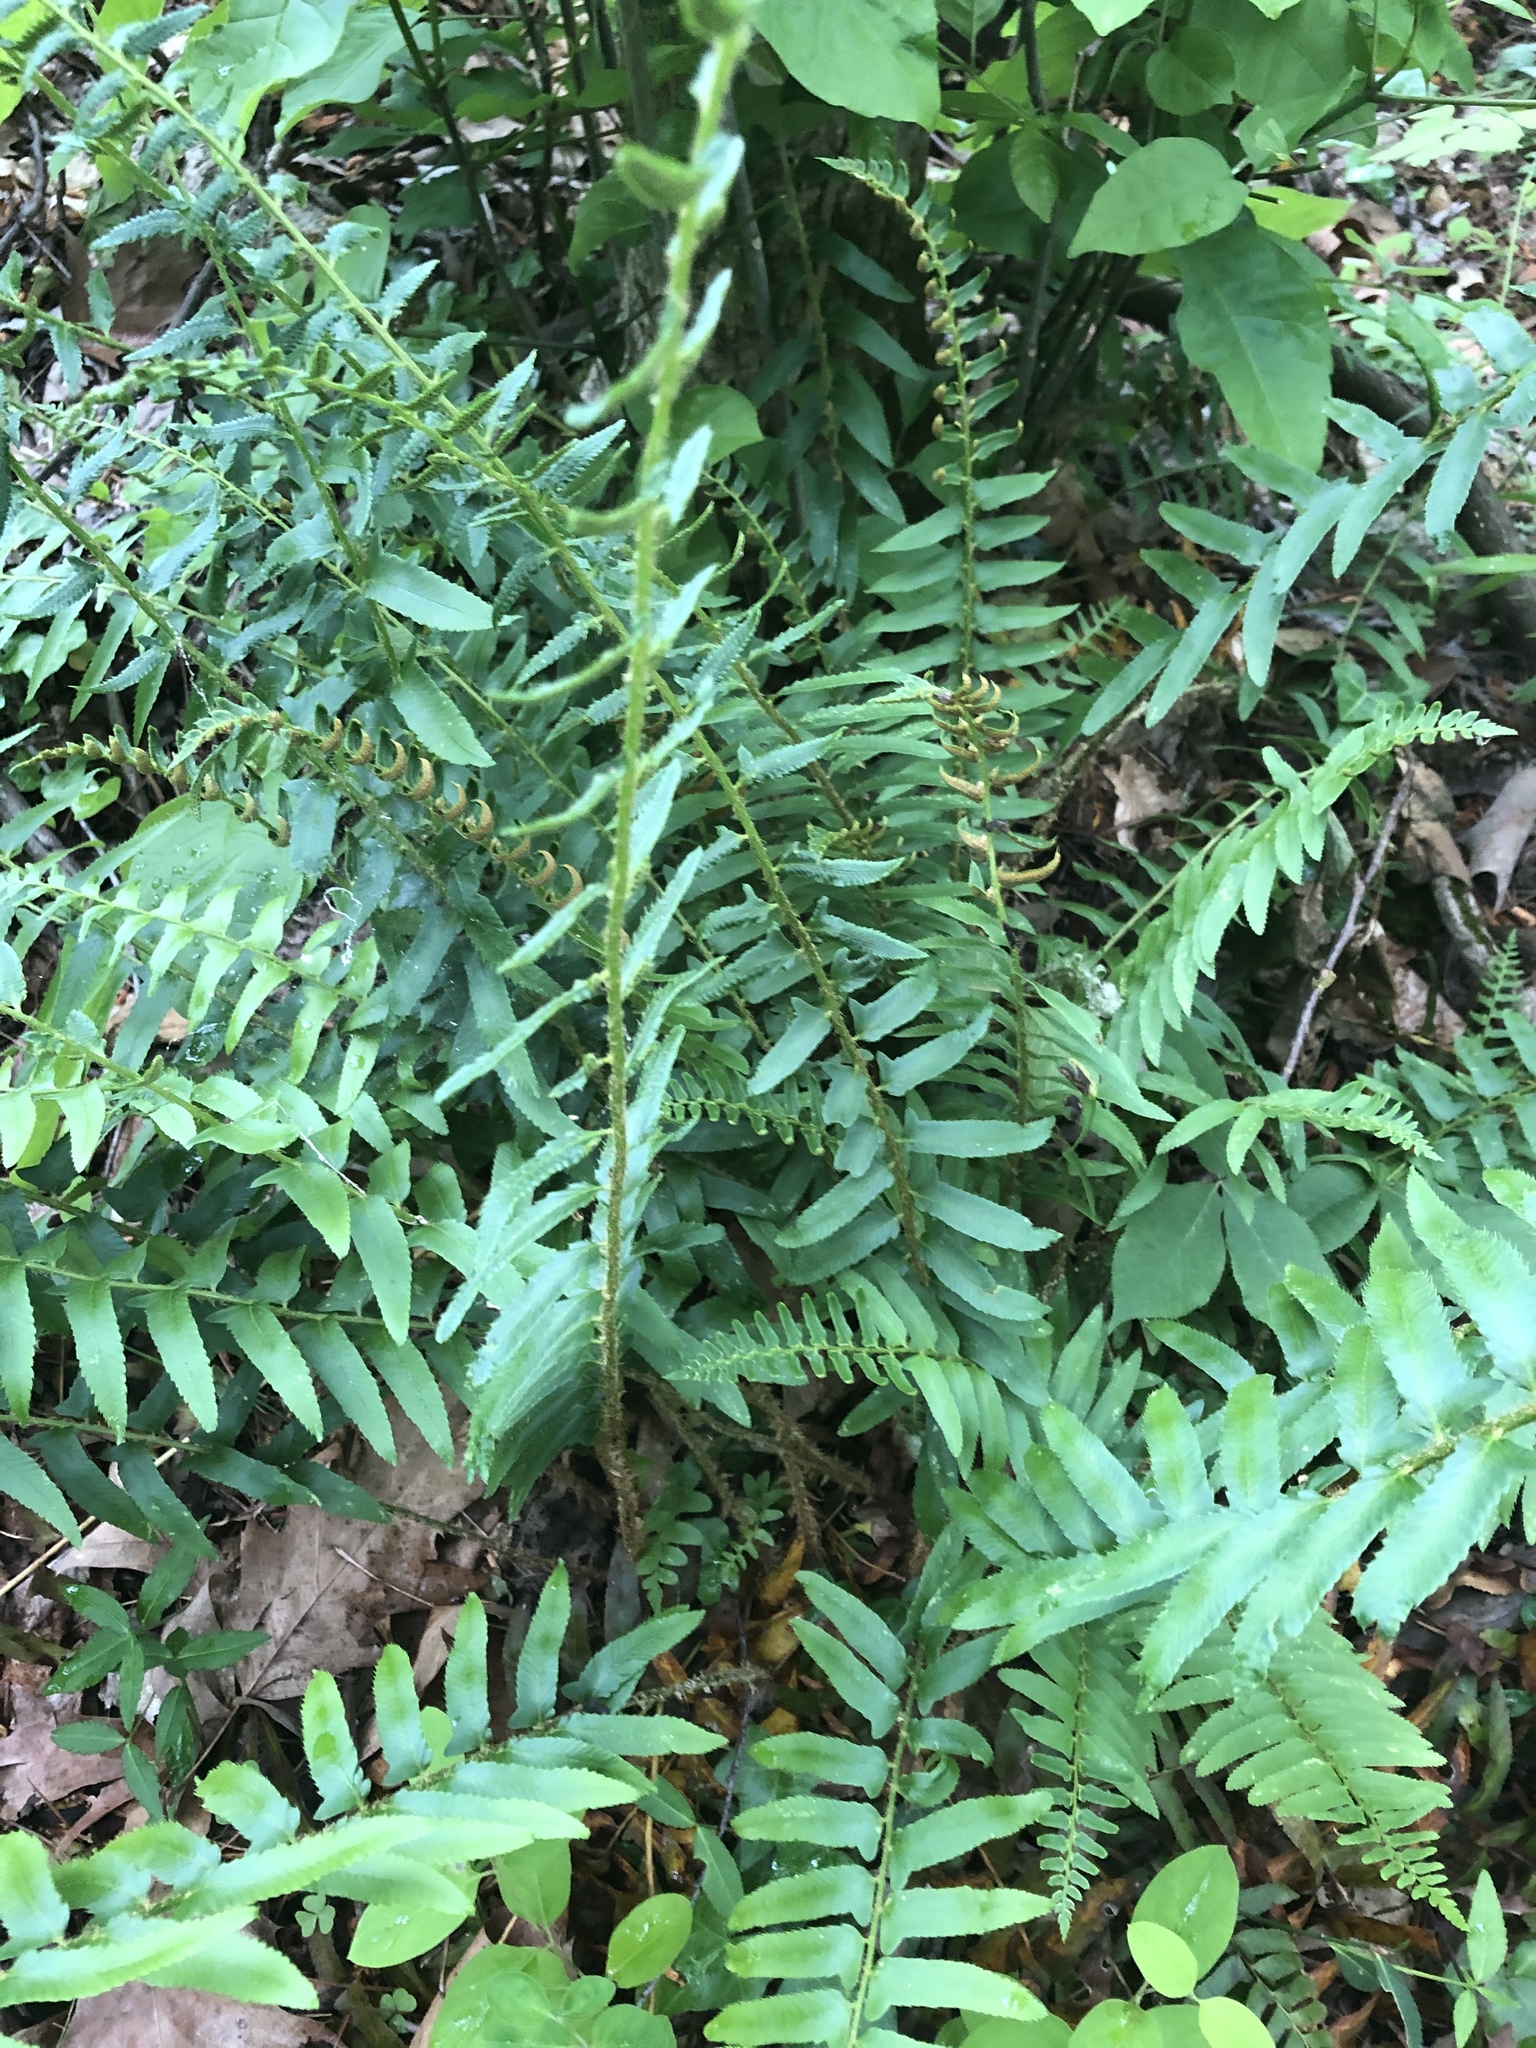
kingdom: Plantae
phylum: Tracheophyta
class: Polypodiopsida
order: Polypodiales
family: Dryopteridaceae
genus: Polystichum
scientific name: Polystichum acrostichoides
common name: Christmas fern
